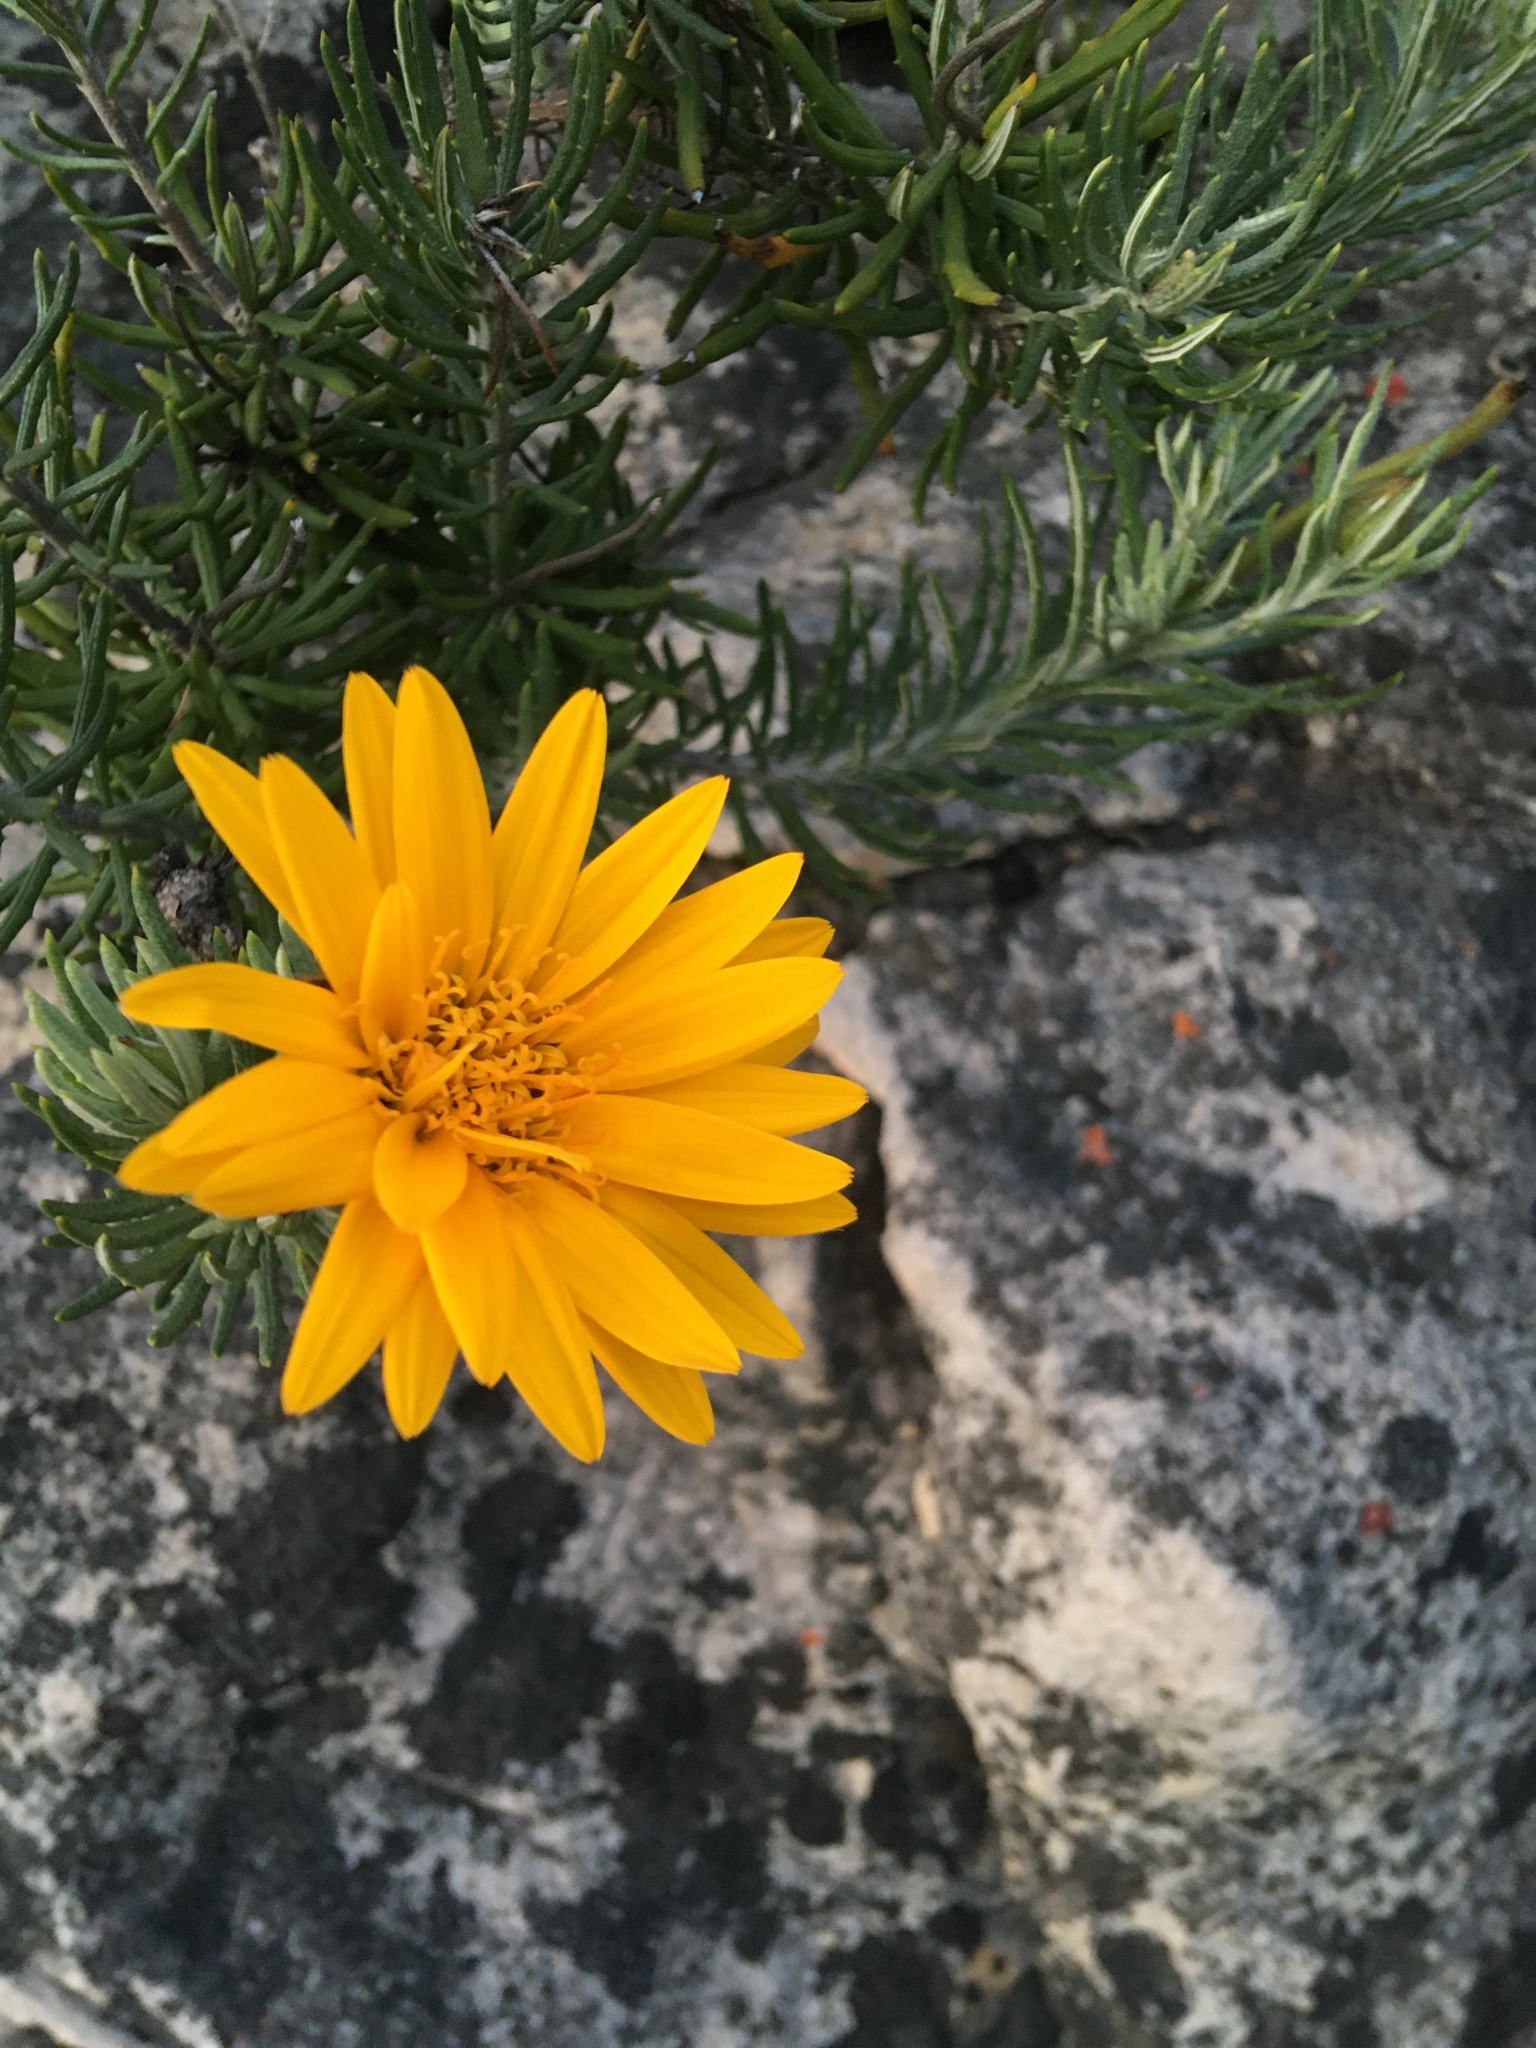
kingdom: Plantae
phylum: Tracheophyta
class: Magnoliopsida
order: Asterales
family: Asteraceae
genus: Heterolepis
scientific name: Heterolepis aliena
